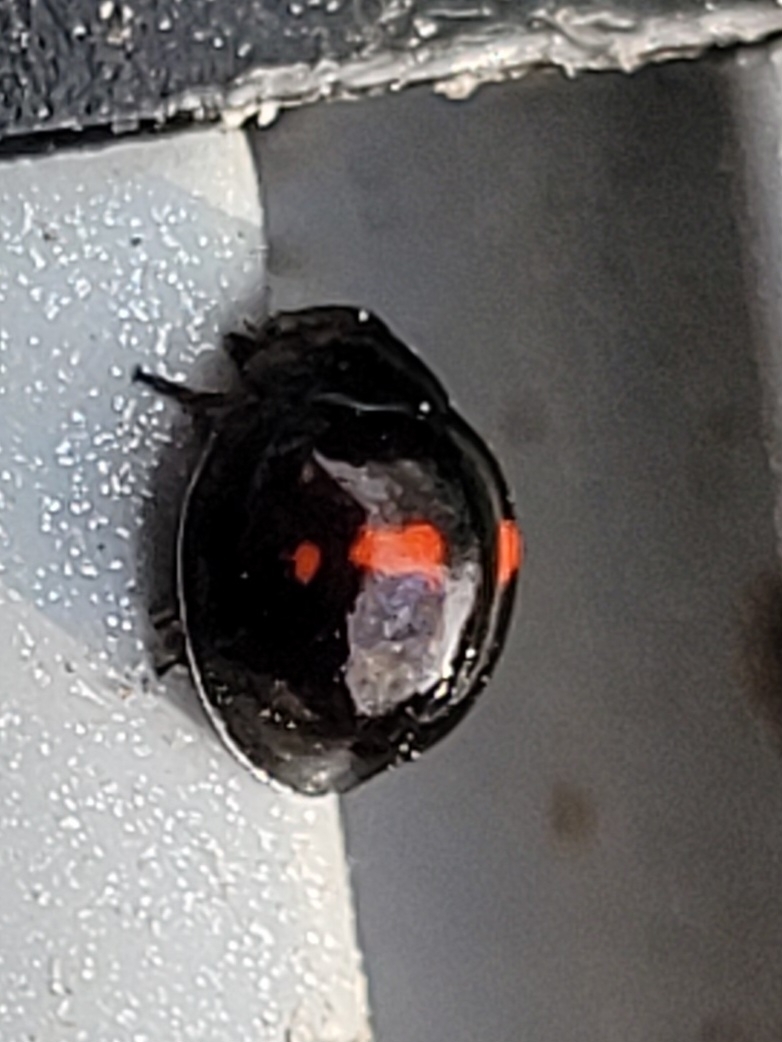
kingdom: Animalia
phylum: Arthropoda
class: Insecta
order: Coleoptera
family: Coccinellidae
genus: Chilocorus
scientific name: Chilocorus bipustulatus
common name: Heather ladybird
